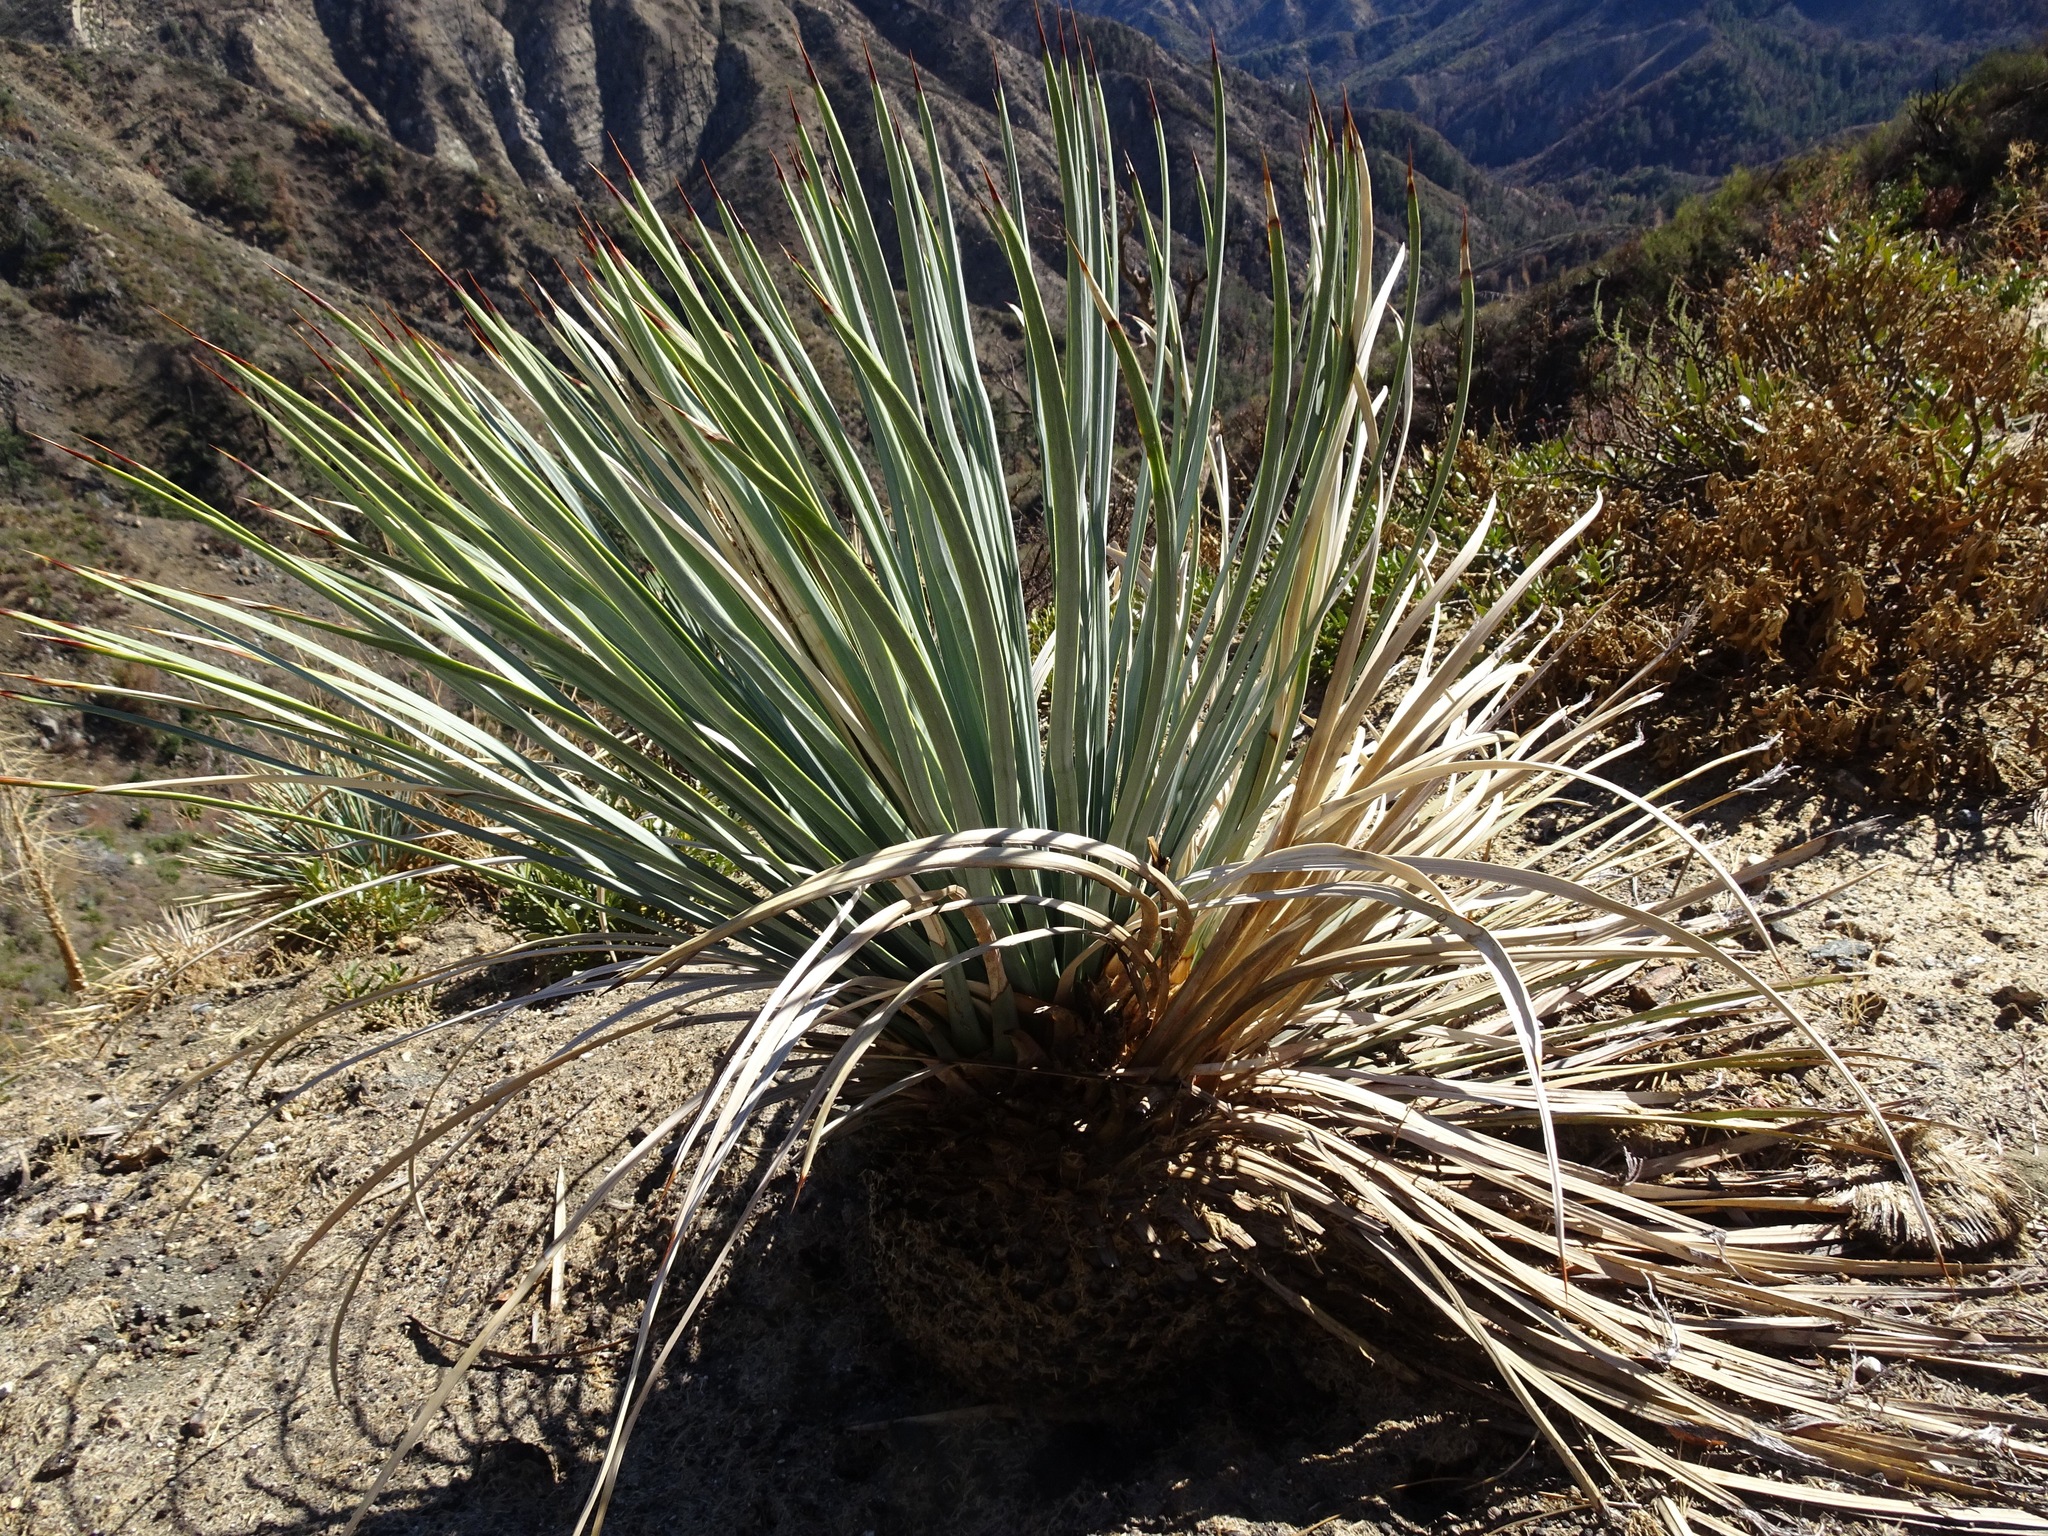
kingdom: Plantae
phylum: Tracheophyta
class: Liliopsida
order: Asparagales
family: Asparagaceae
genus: Hesperoyucca
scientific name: Hesperoyucca whipplei
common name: Our lord's-candle
